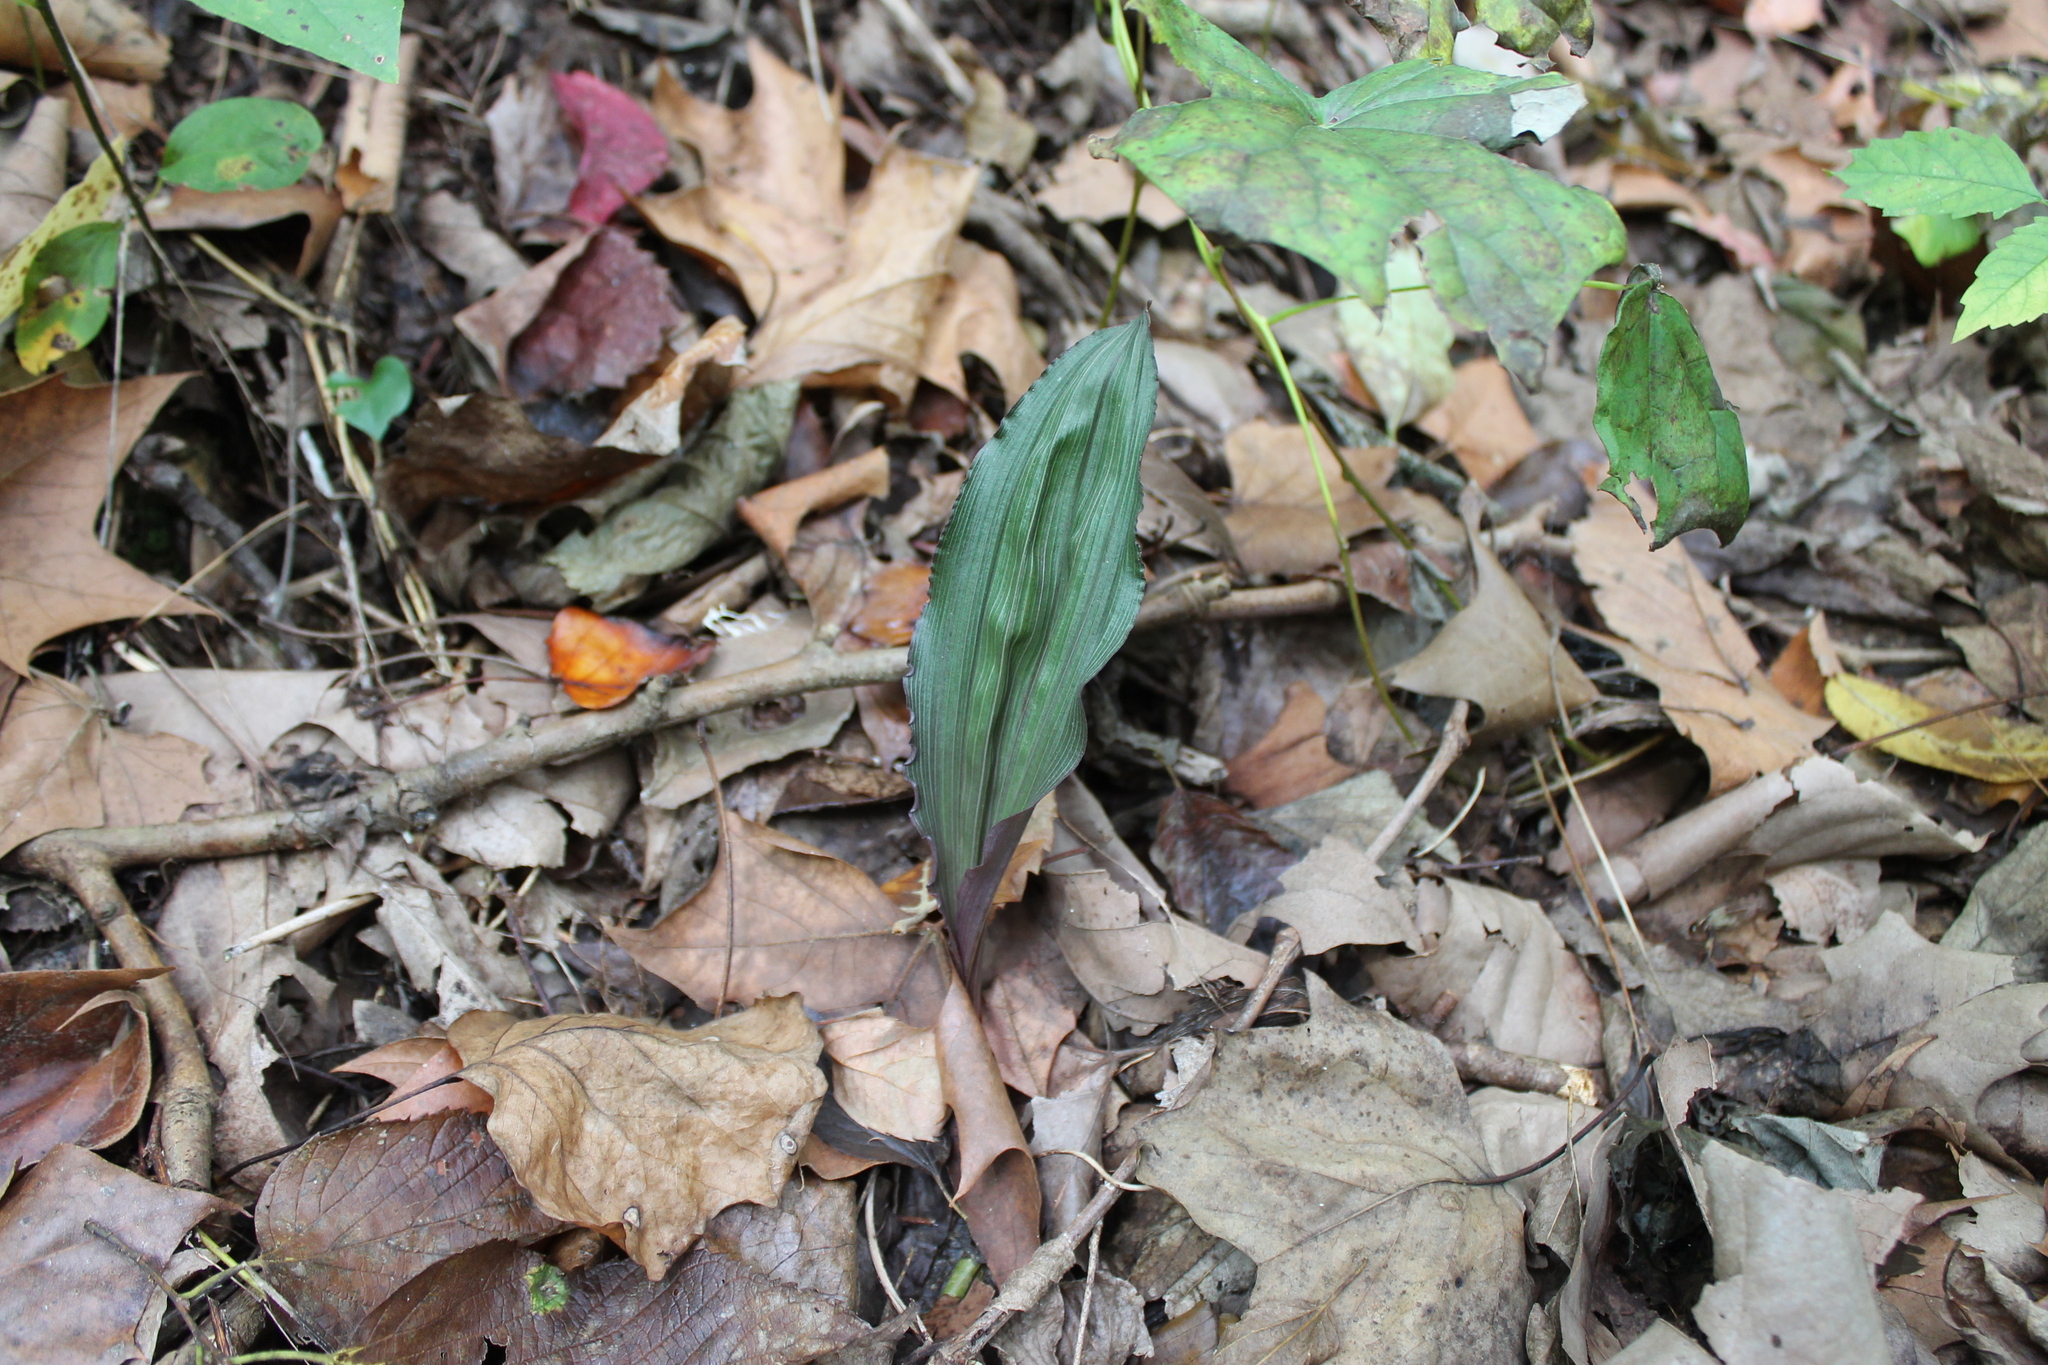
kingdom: Plantae
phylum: Tracheophyta
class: Liliopsida
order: Asparagales
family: Orchidaceae
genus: Aplectrum
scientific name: Aplectrum hyemale
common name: Adam-and-eve
